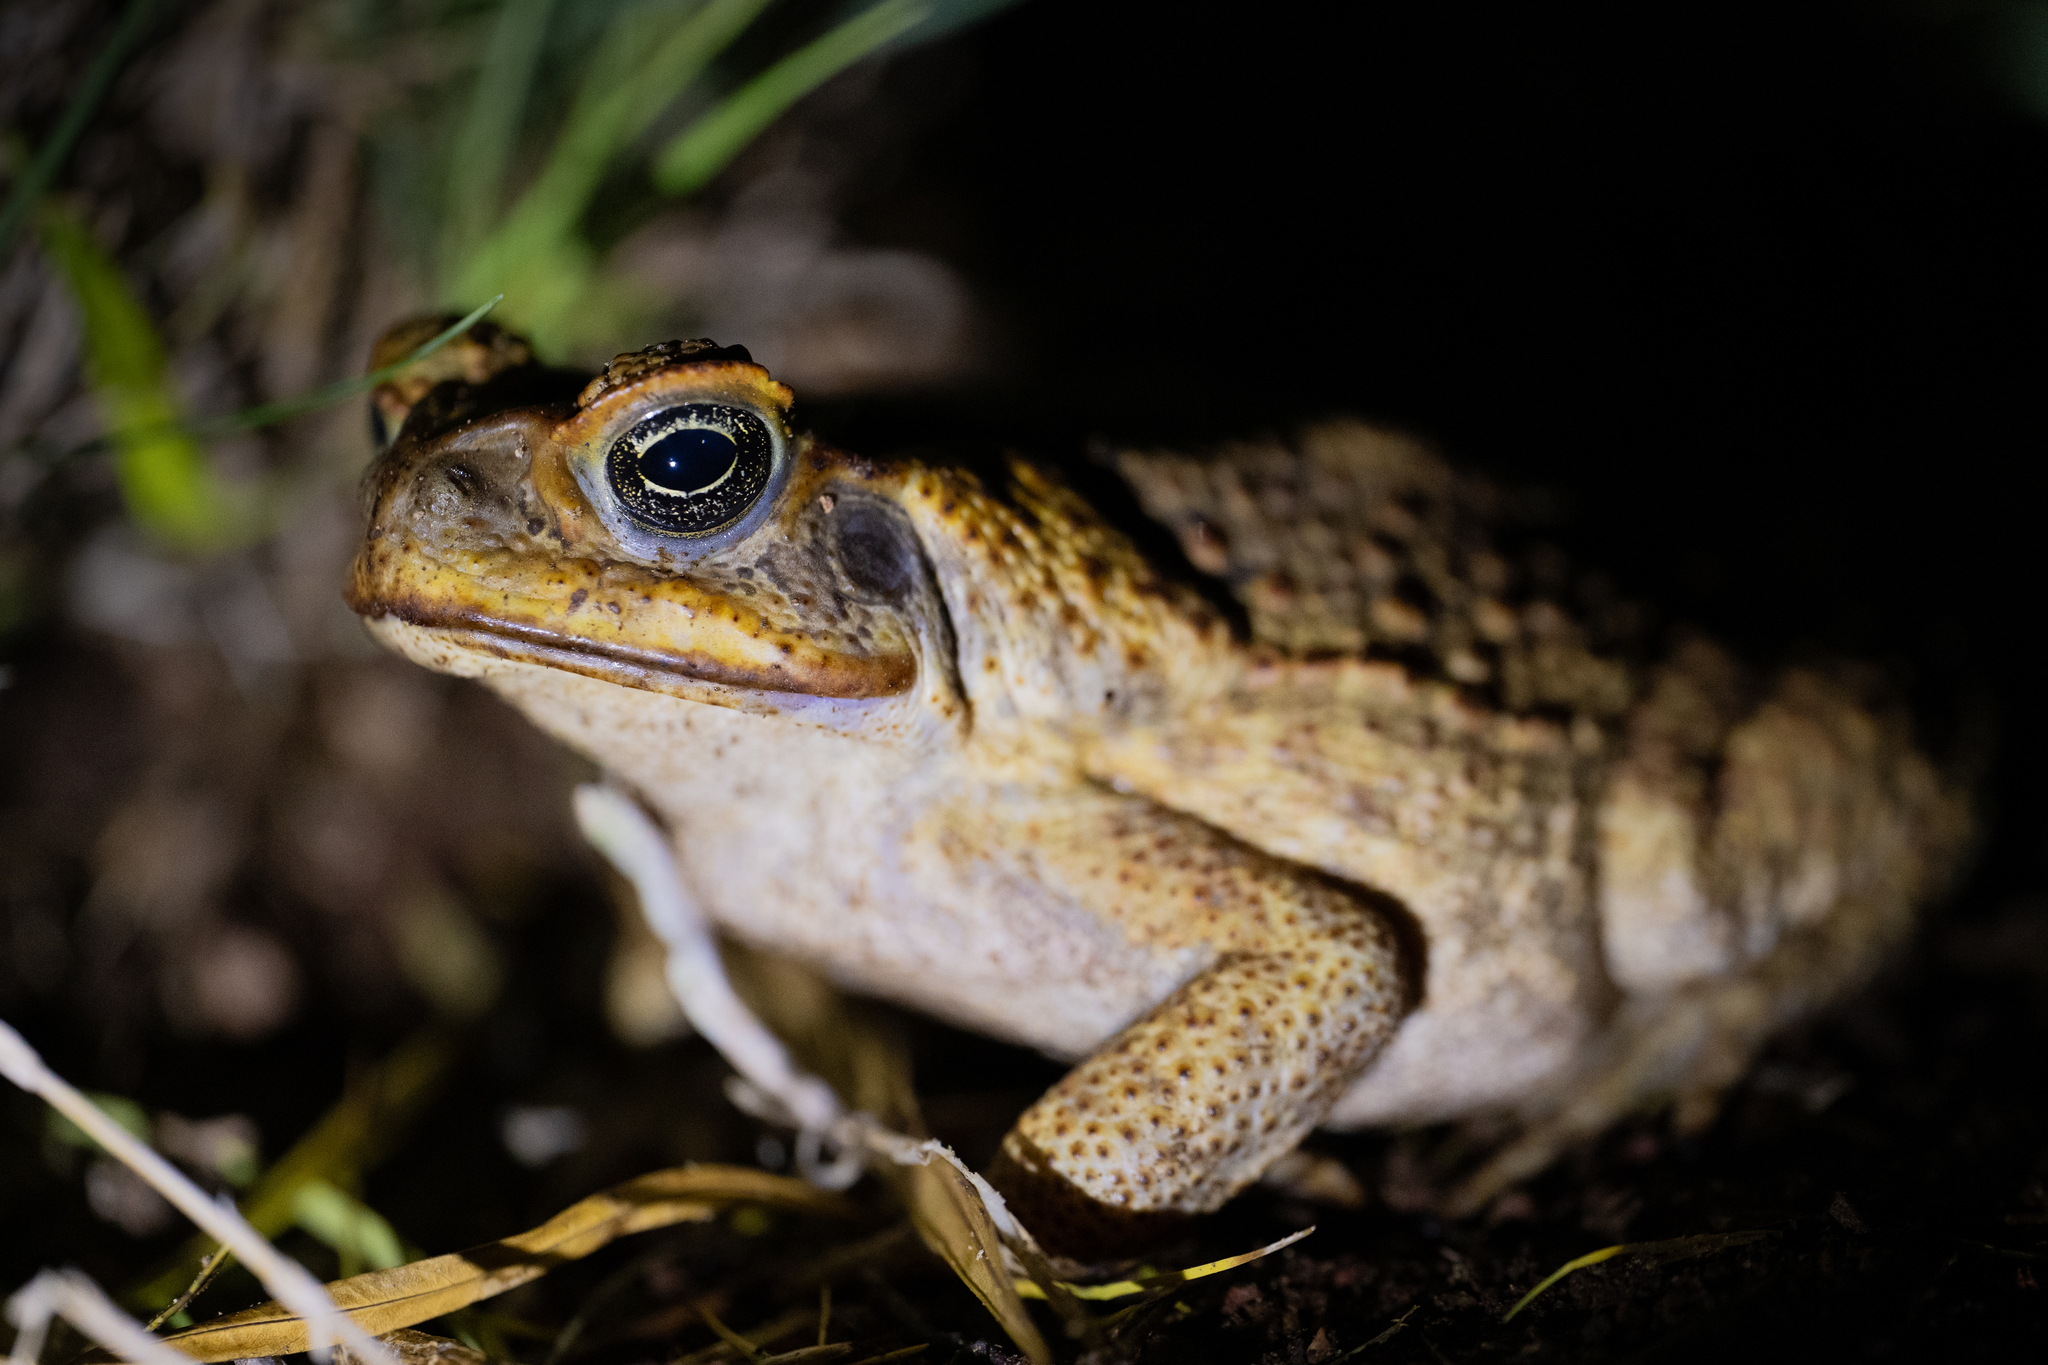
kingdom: Animalia
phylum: Chordata
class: Amphibia
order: Anura
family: Bufonidae
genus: Rhinella
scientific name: Rhinella marina
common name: Cane toad
